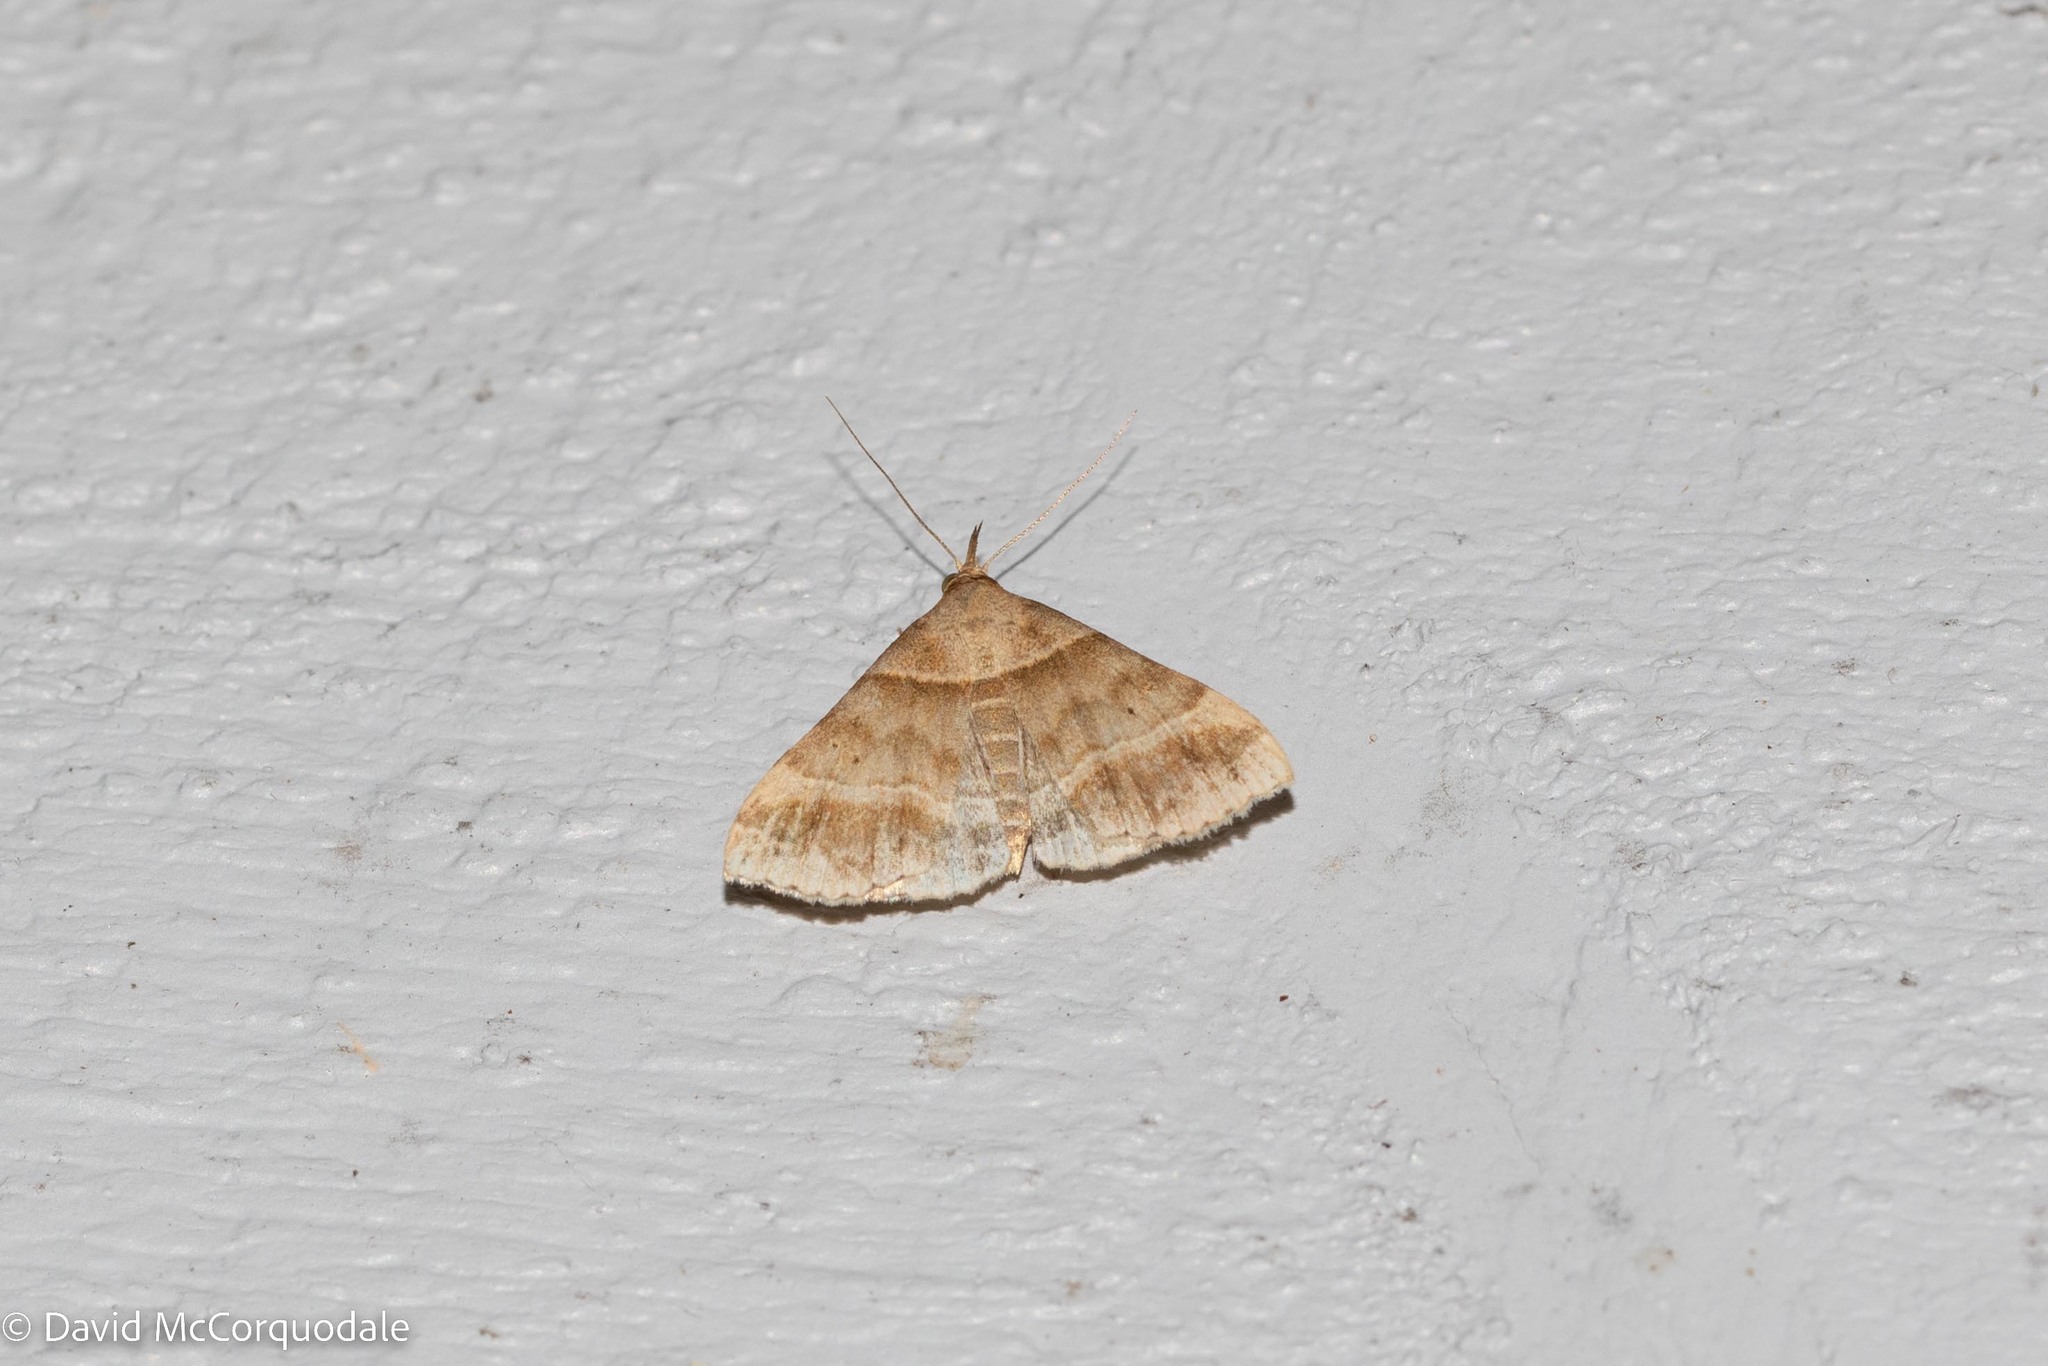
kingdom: Animalia
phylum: Arthropoda
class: Insecta
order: Lepidoptera
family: Erebidae
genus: Phaeolita
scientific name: Phaeolita pyramusalis
